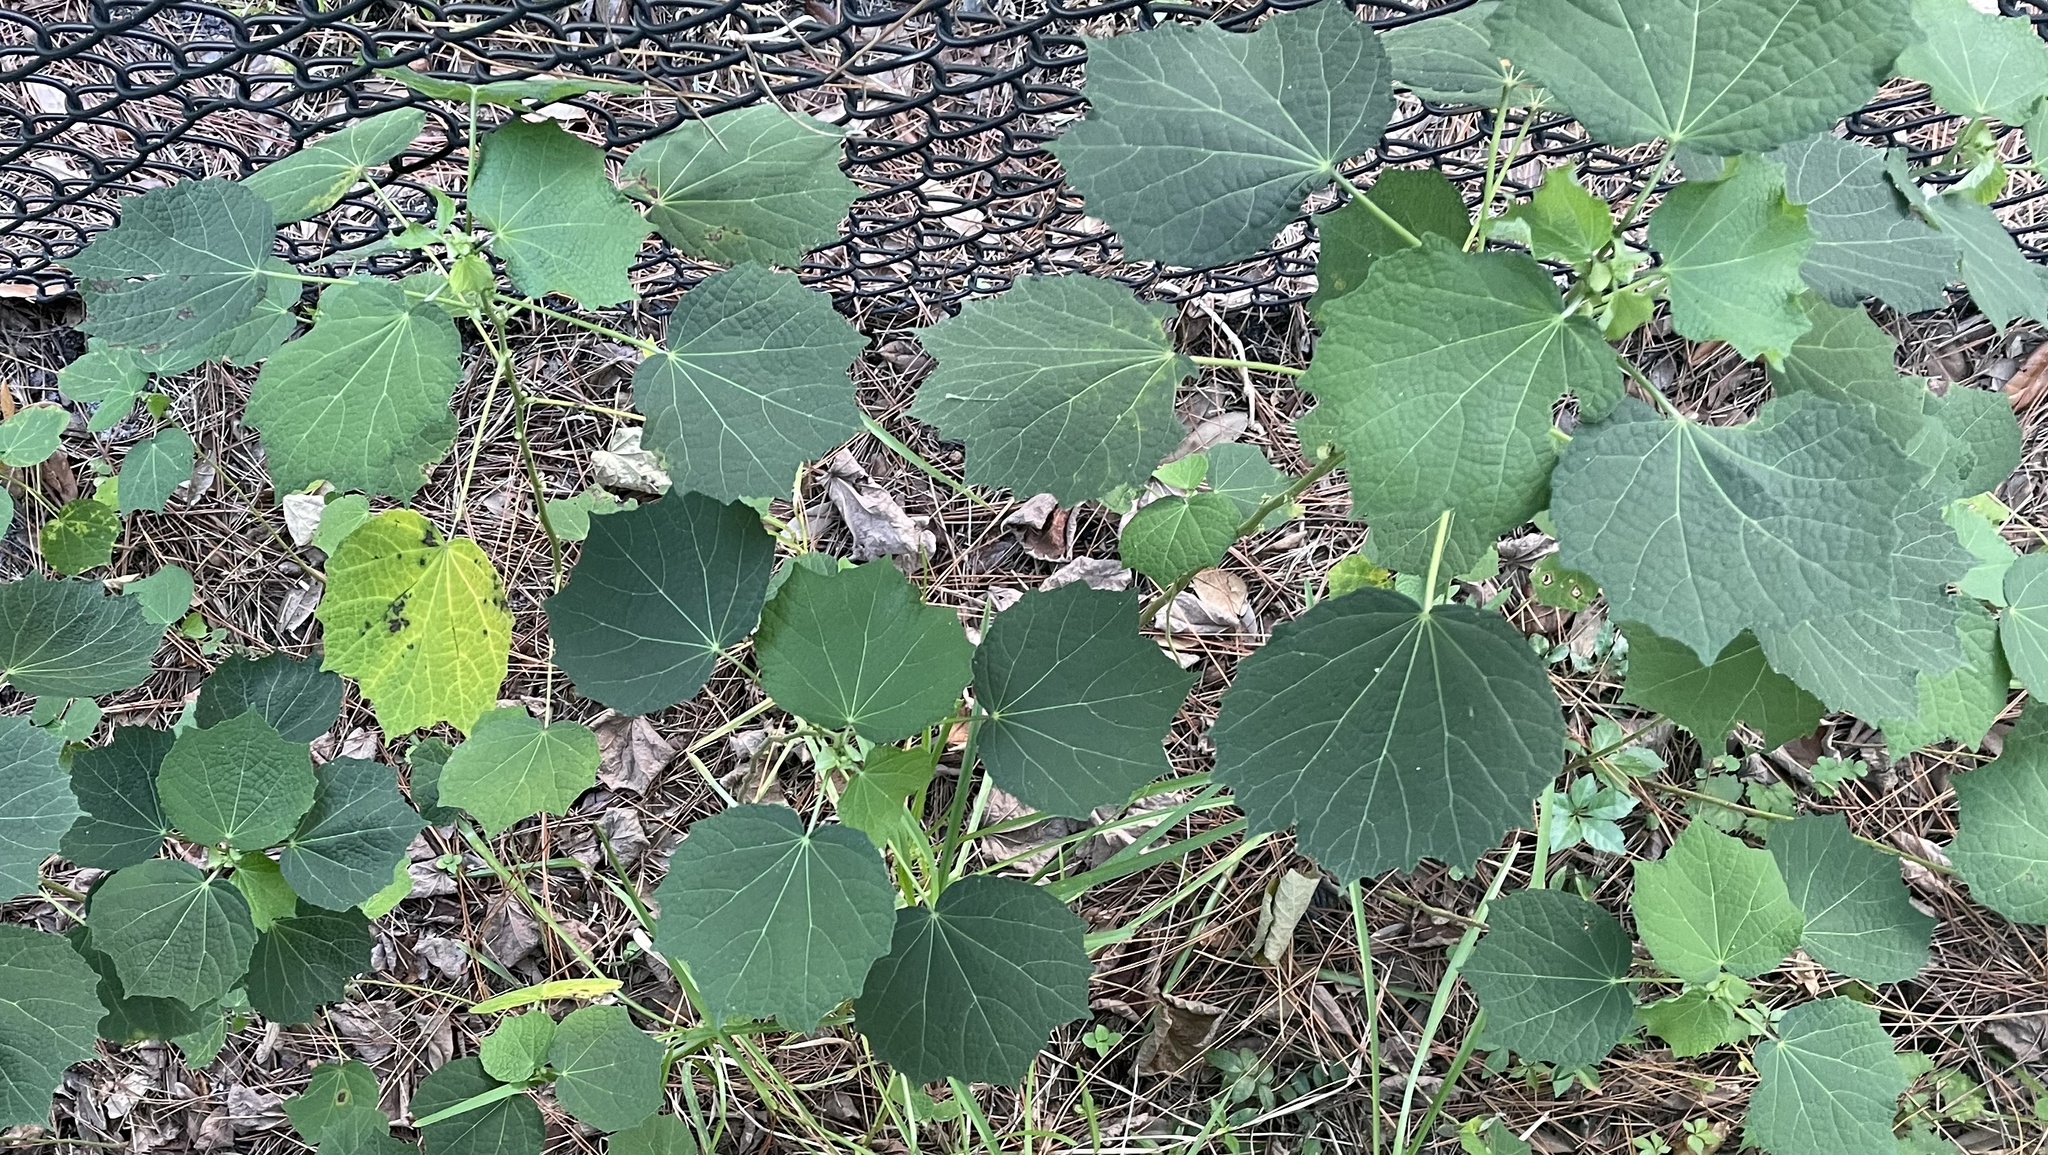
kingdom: Plantae
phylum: Tracheophyta
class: Magnoliopsida
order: Malvales
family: Malvaceae
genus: Urena
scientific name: Urena lobata
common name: Caesarweed
